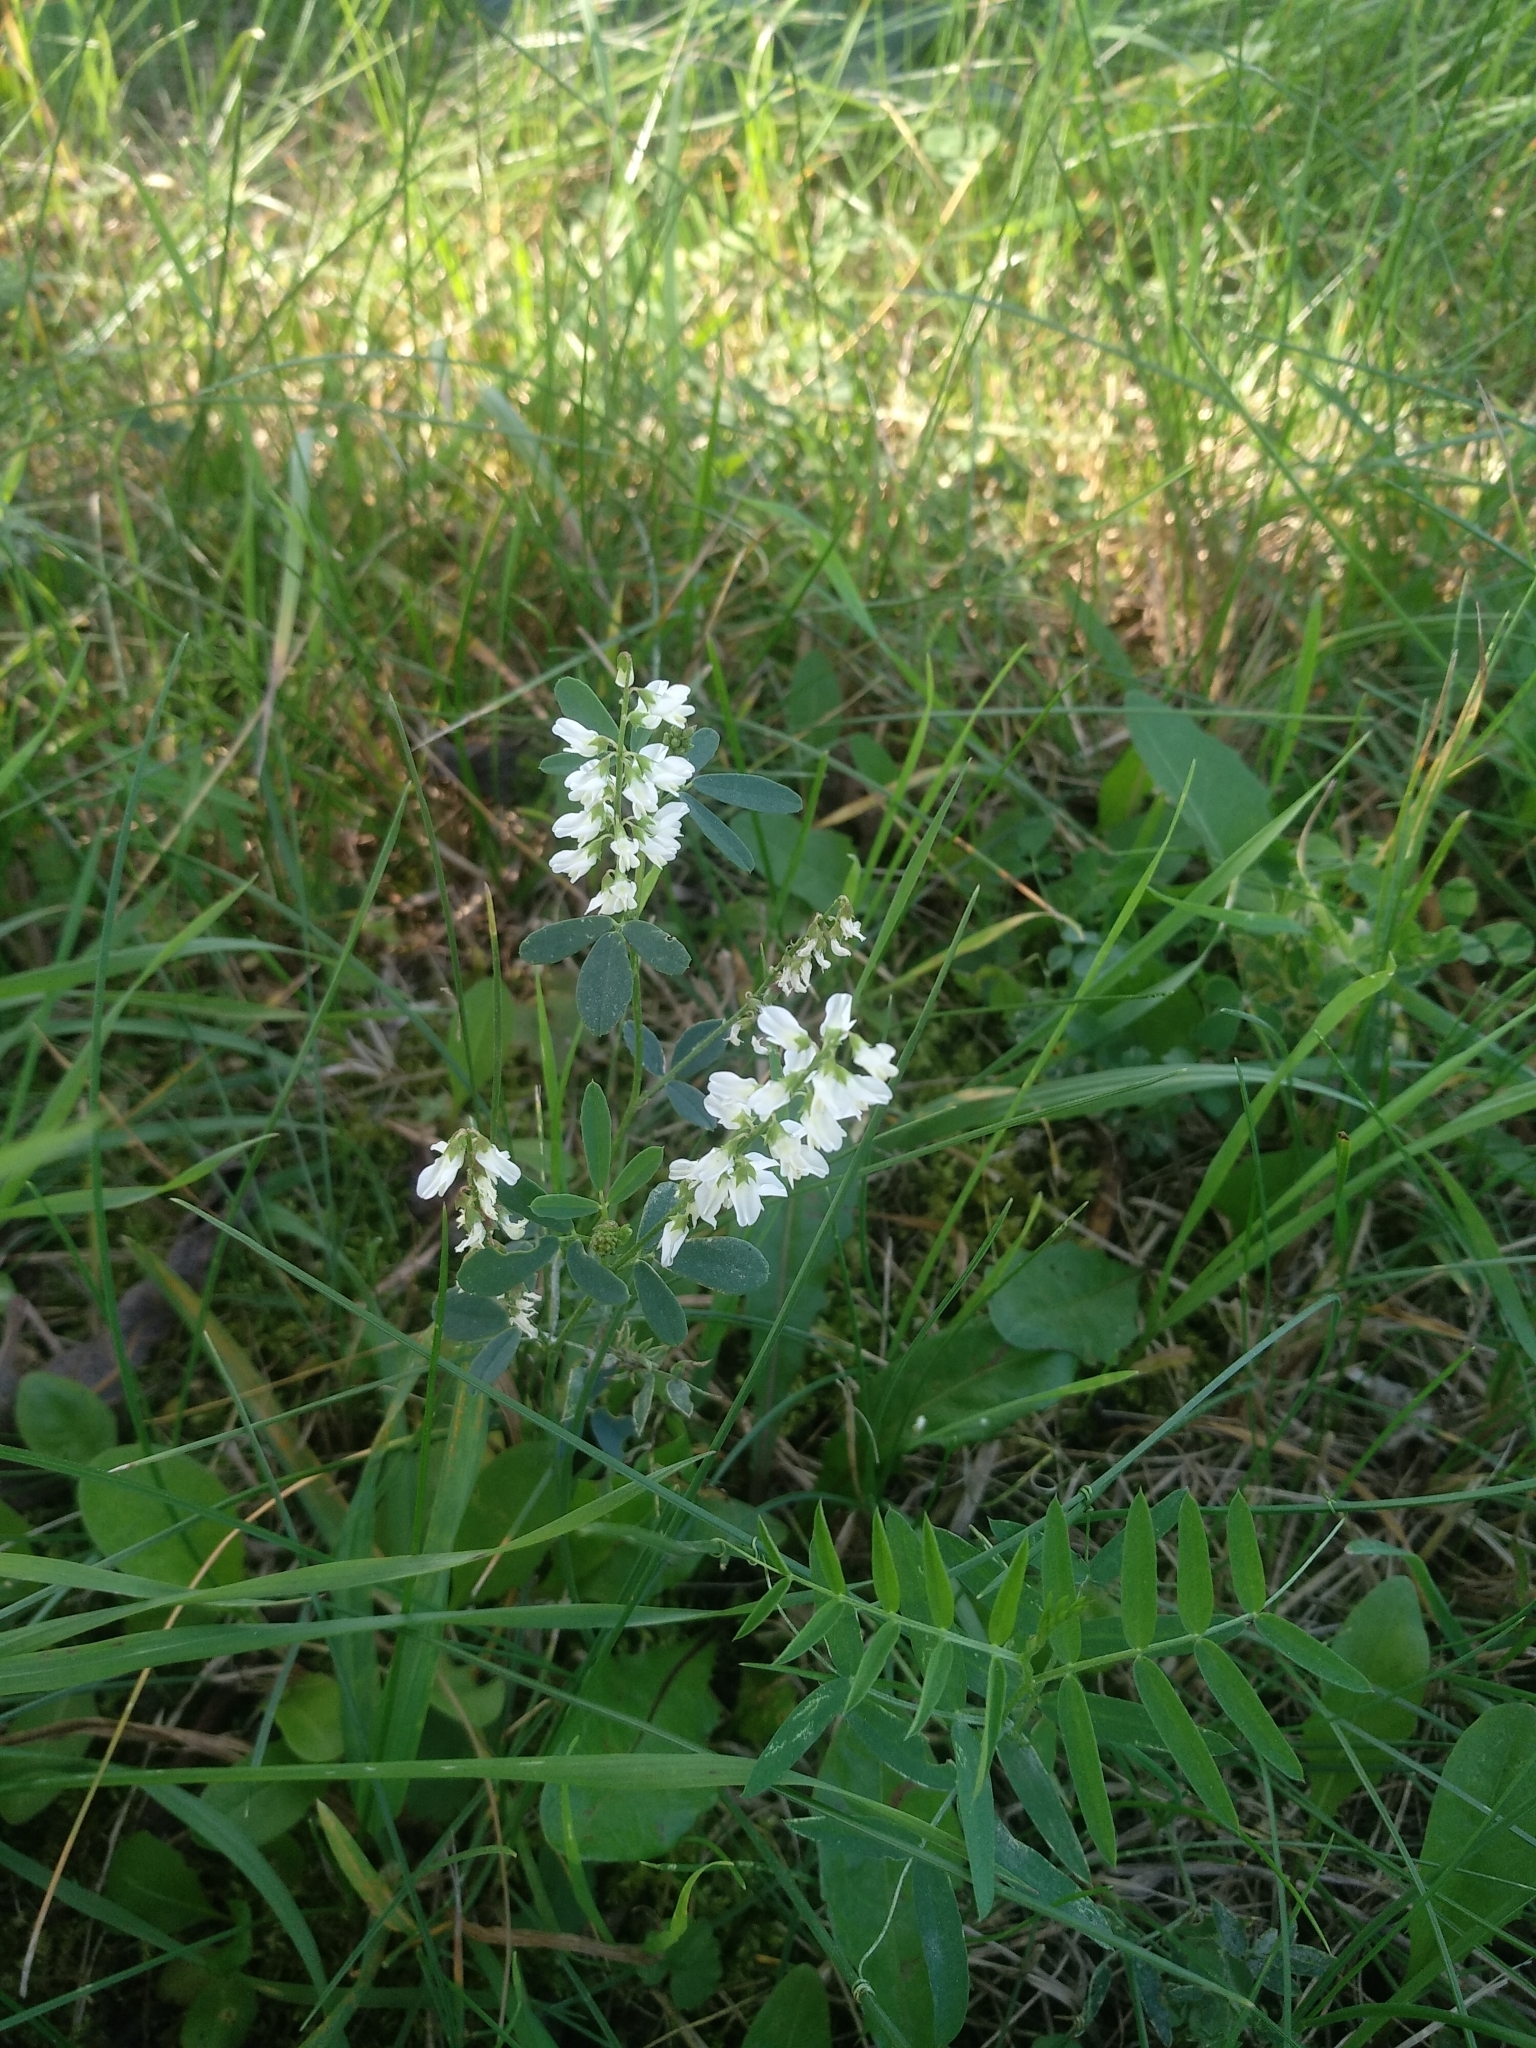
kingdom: Plantae
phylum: Tracheophyta
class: Magnoliopsida
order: Fabales
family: Fabaceae
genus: Melilotus
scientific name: Melilotus albus
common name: White melilot
